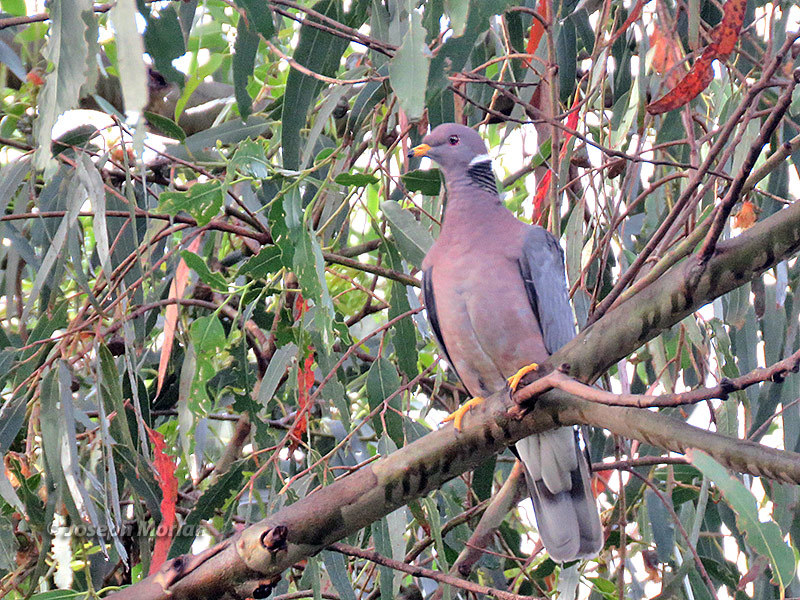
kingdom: Animalia
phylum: Chordata
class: Aves
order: Columbiformes
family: Columbidae
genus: Patagioenas
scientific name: Patagioenas fasciata
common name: Band-tailed pigeon
